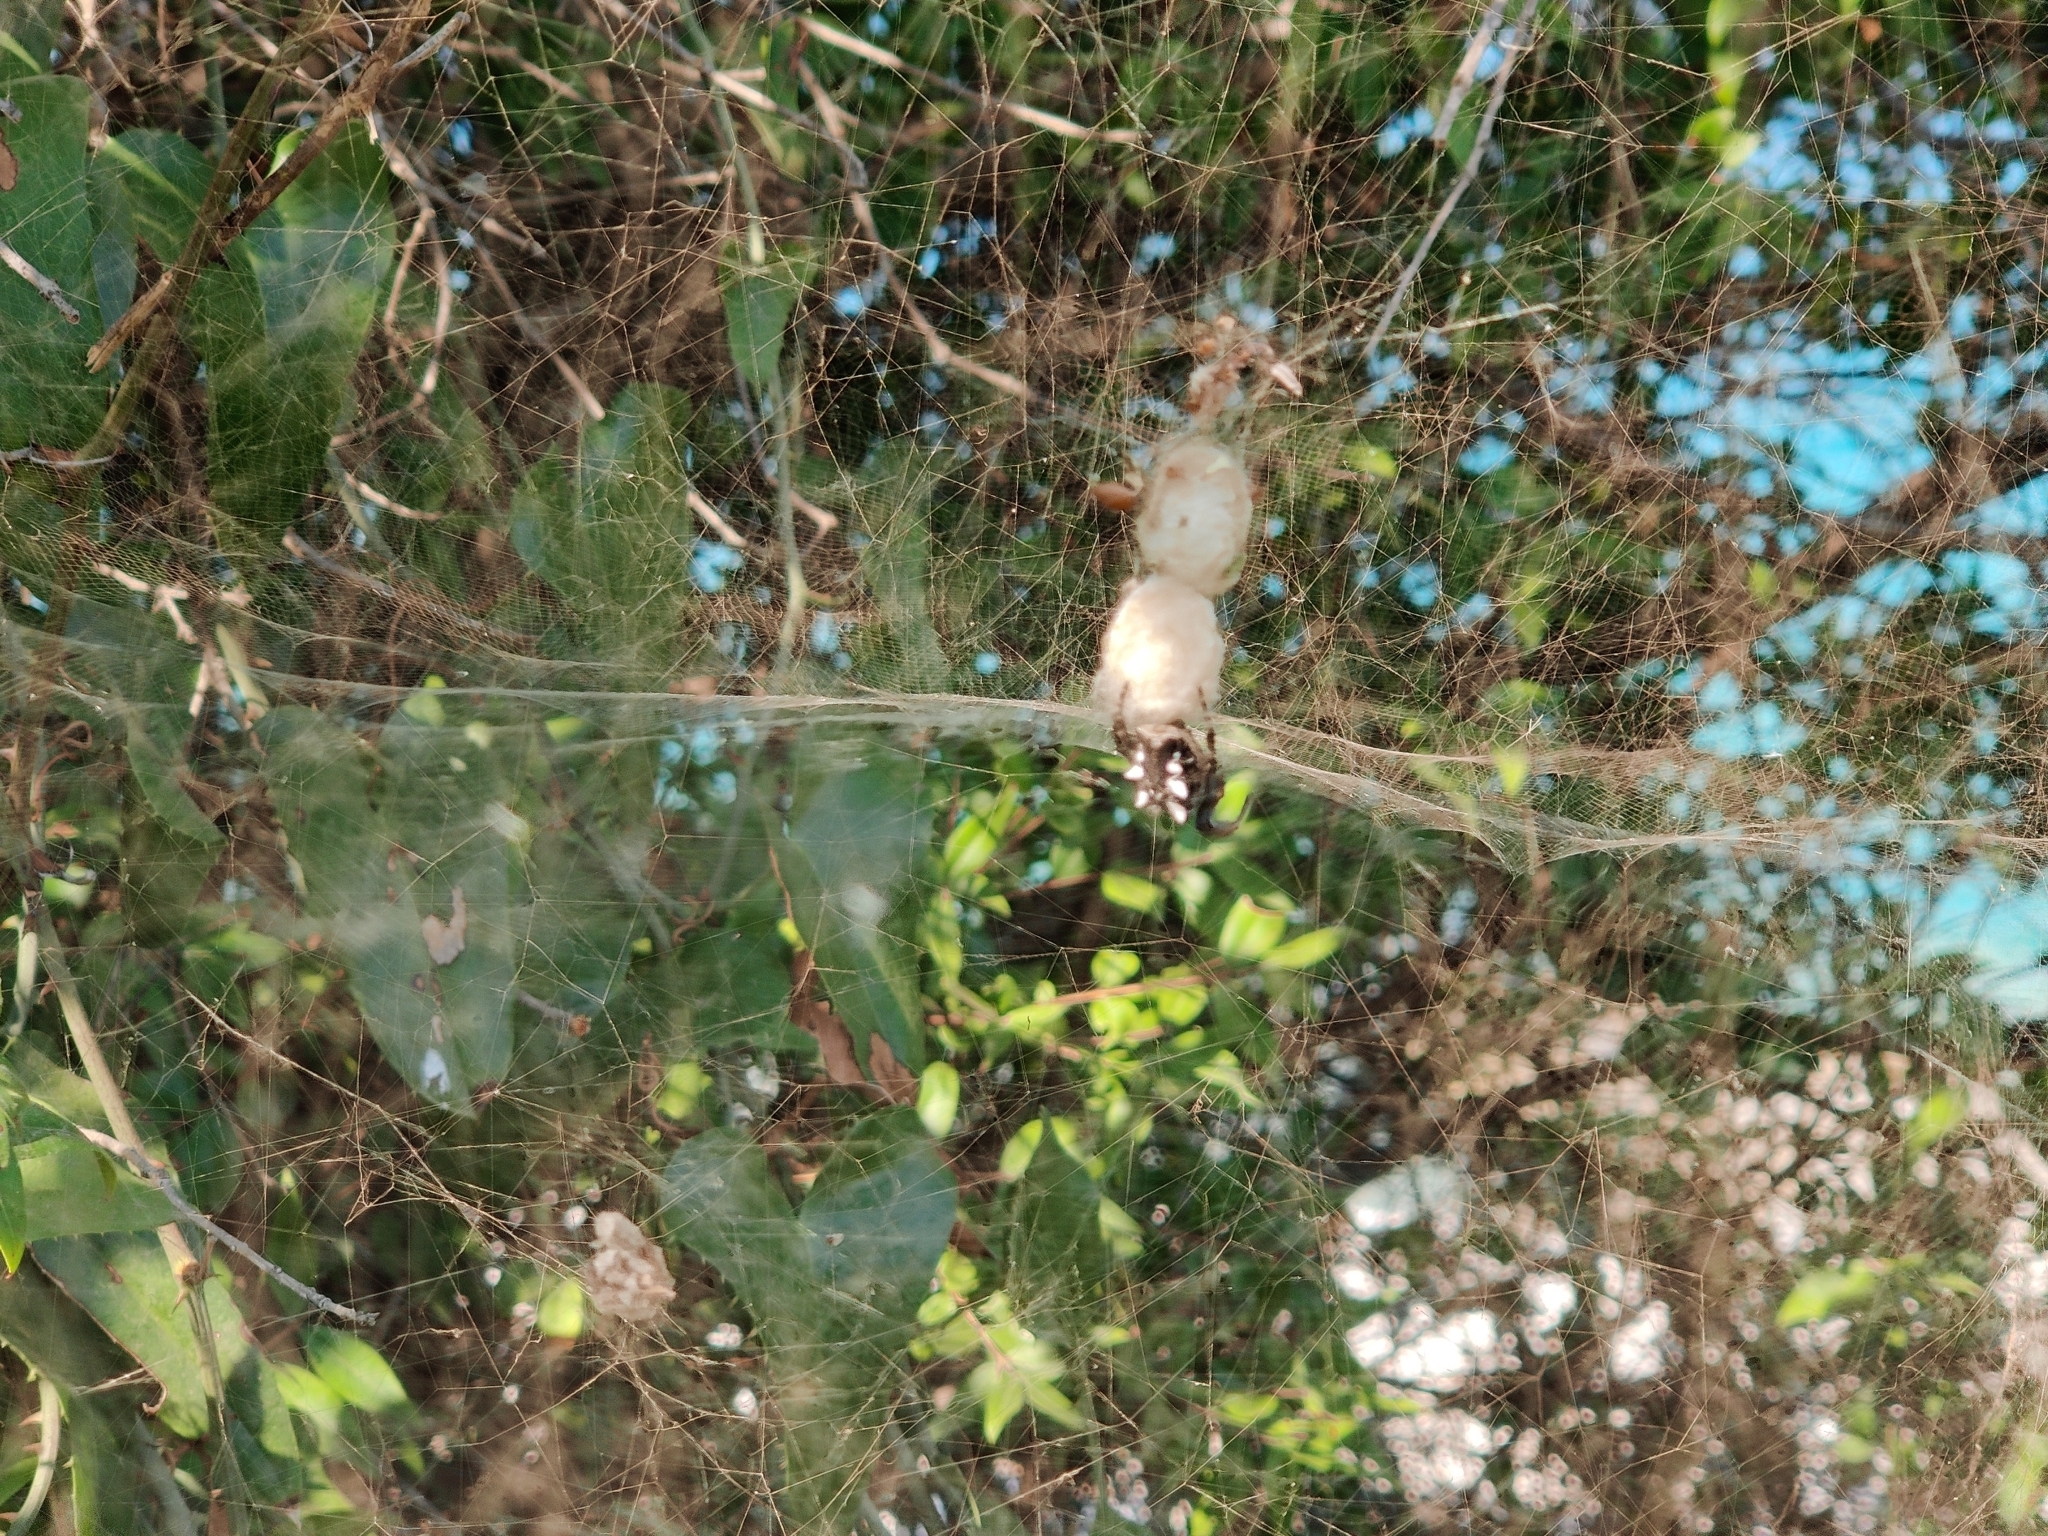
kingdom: Animalia
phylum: Arthropoda
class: Arachnida
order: Araneae
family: Araneidae
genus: Cyrtophora
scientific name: Cyrtophora citricola
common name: Orb weavers
